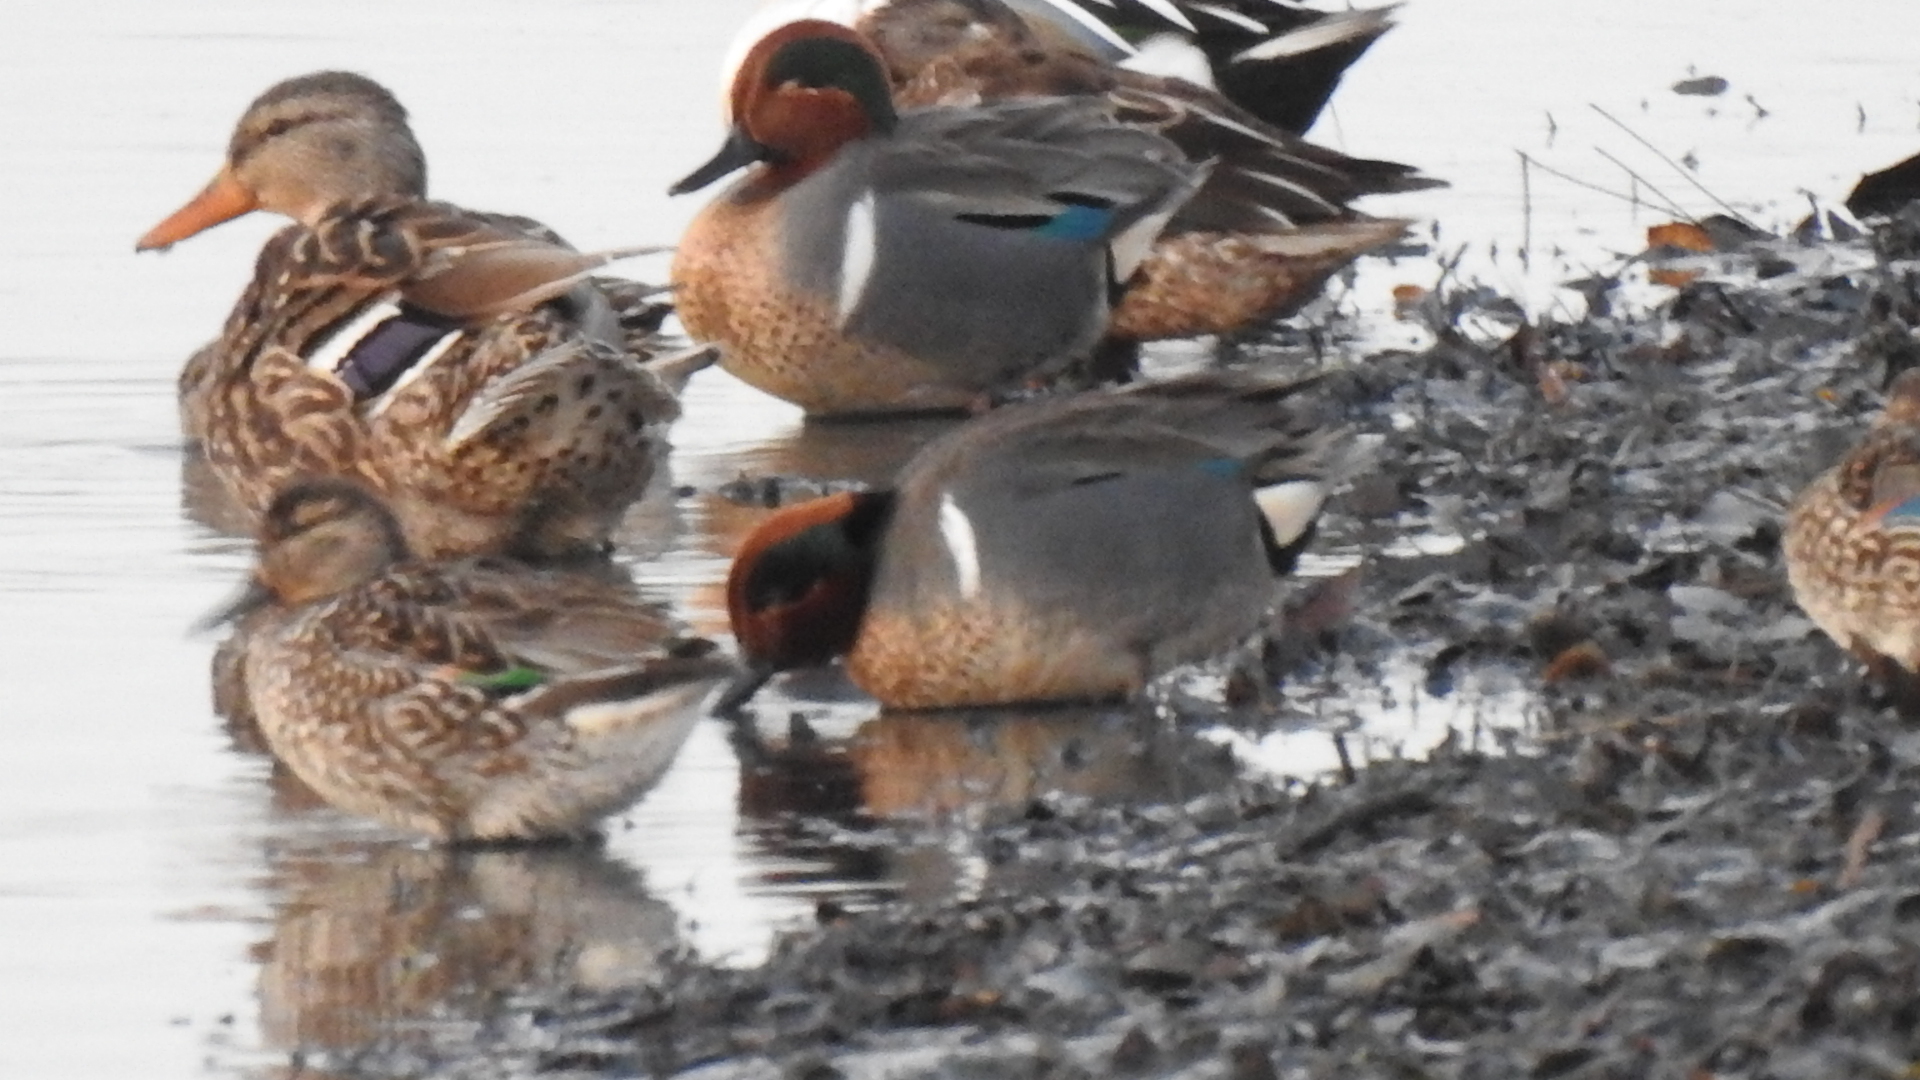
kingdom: Animalia
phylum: Chordata
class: Aves
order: Anseriformes
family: Anatidae
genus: Anas
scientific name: Anas carolinensis
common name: Green-winged teal
